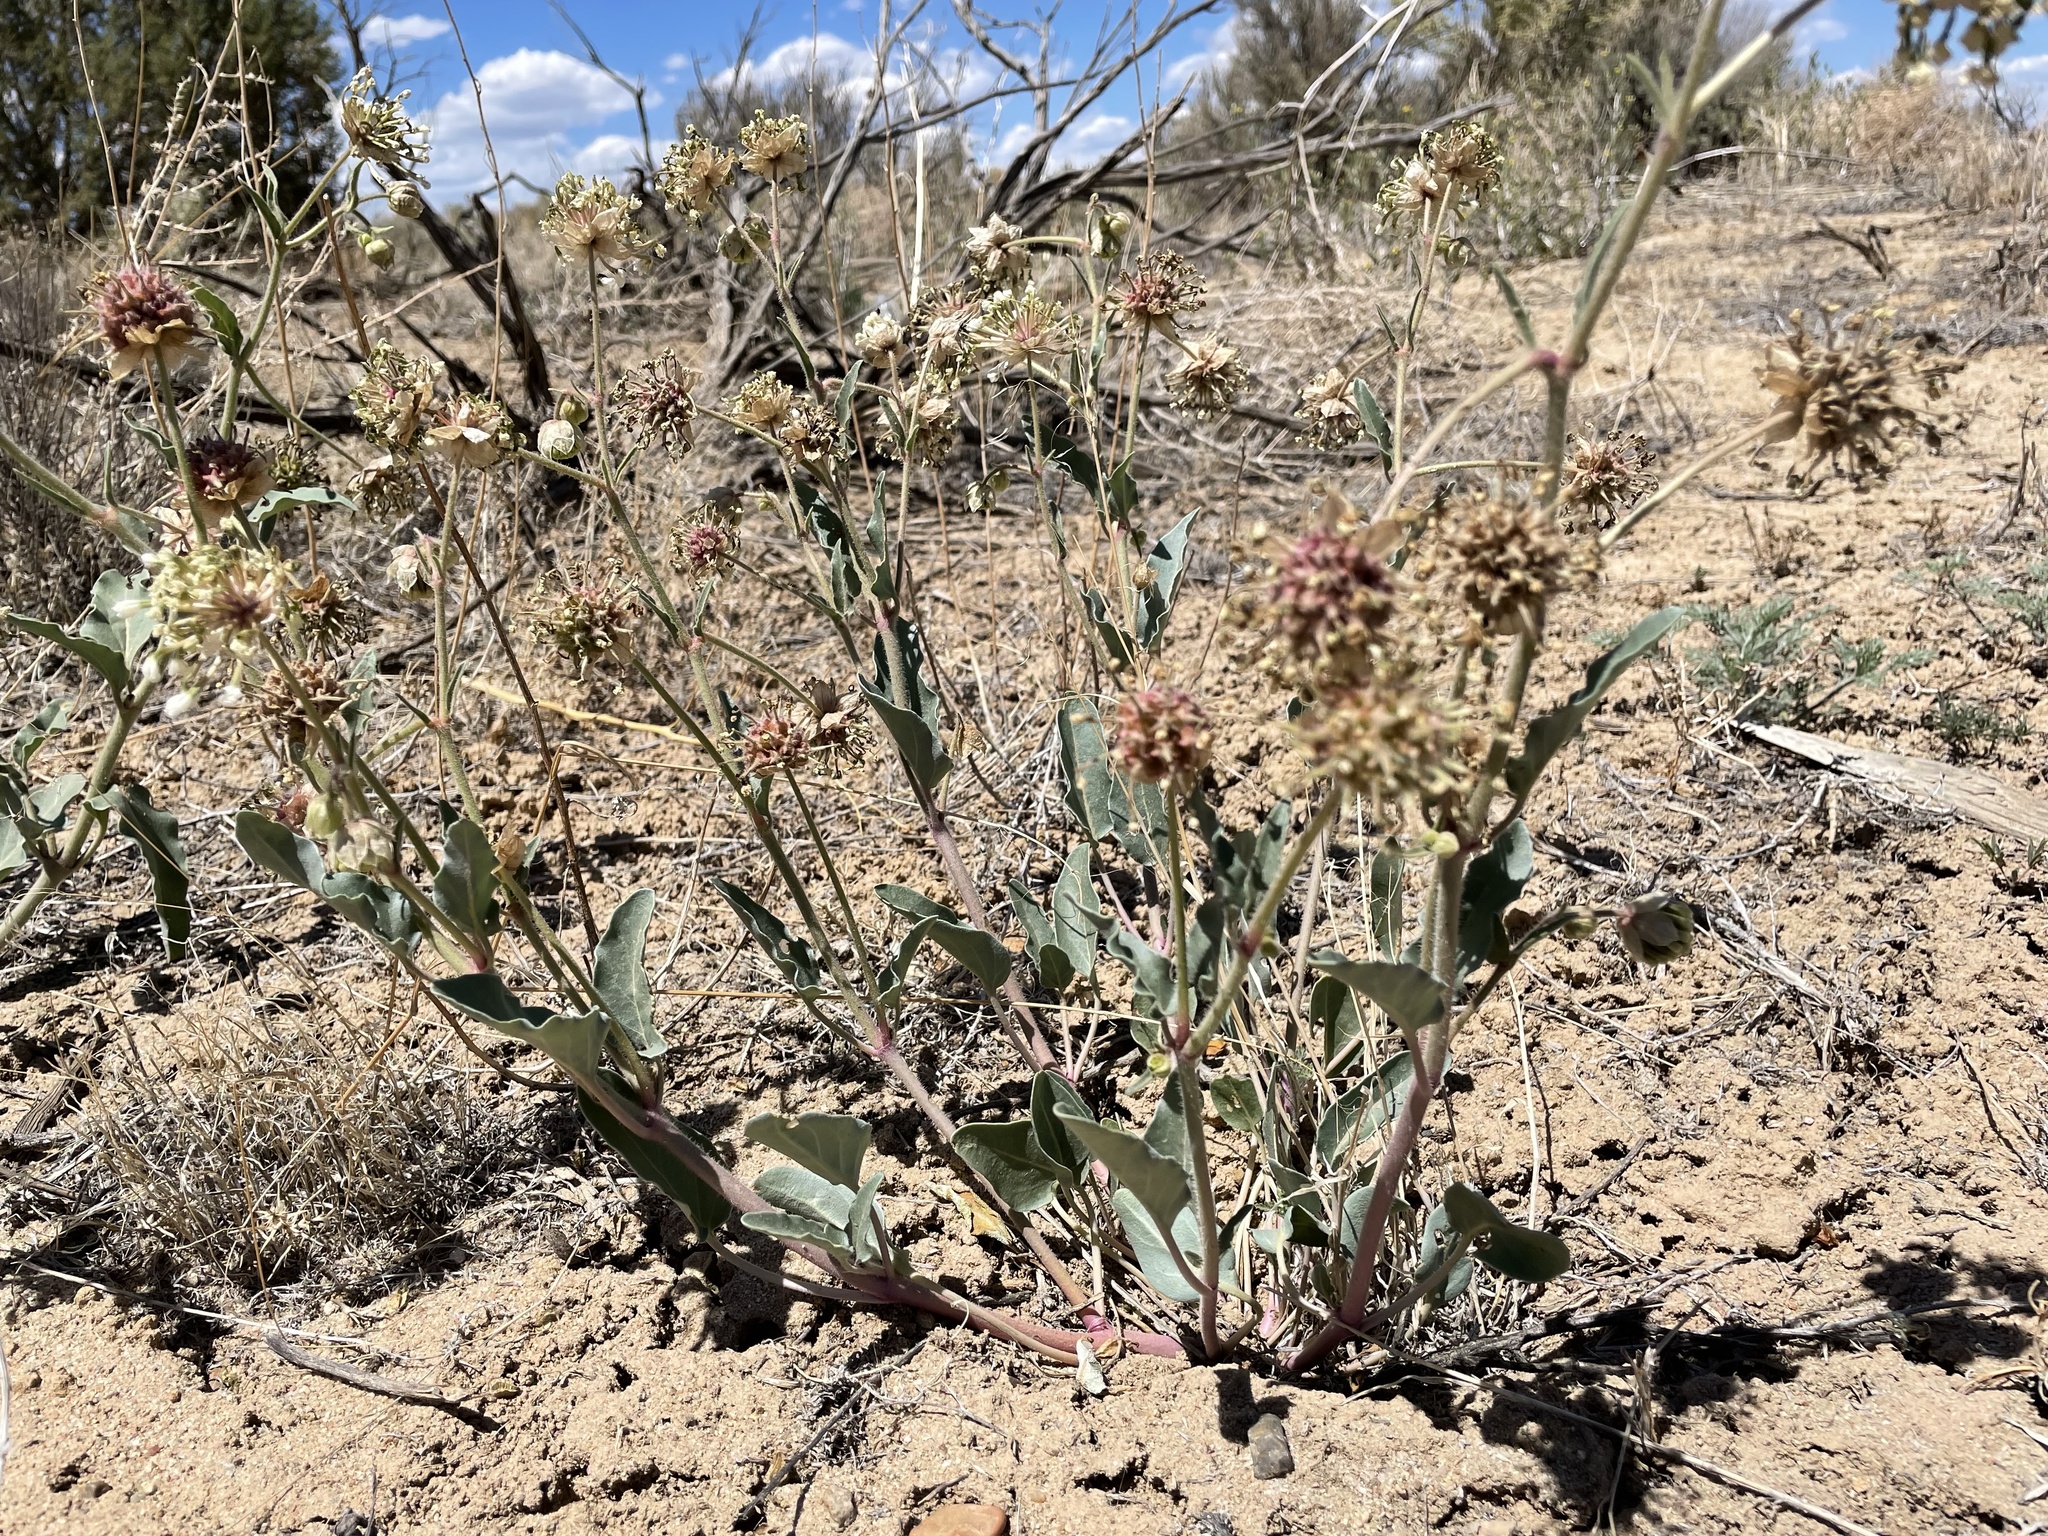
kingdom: Plantae
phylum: Tracheophyta
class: Magnoliopsida
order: Caryophyllales
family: Nyctaginaceae
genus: Abronia
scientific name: Abronia fragrans
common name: Fragrant sand-verbena
